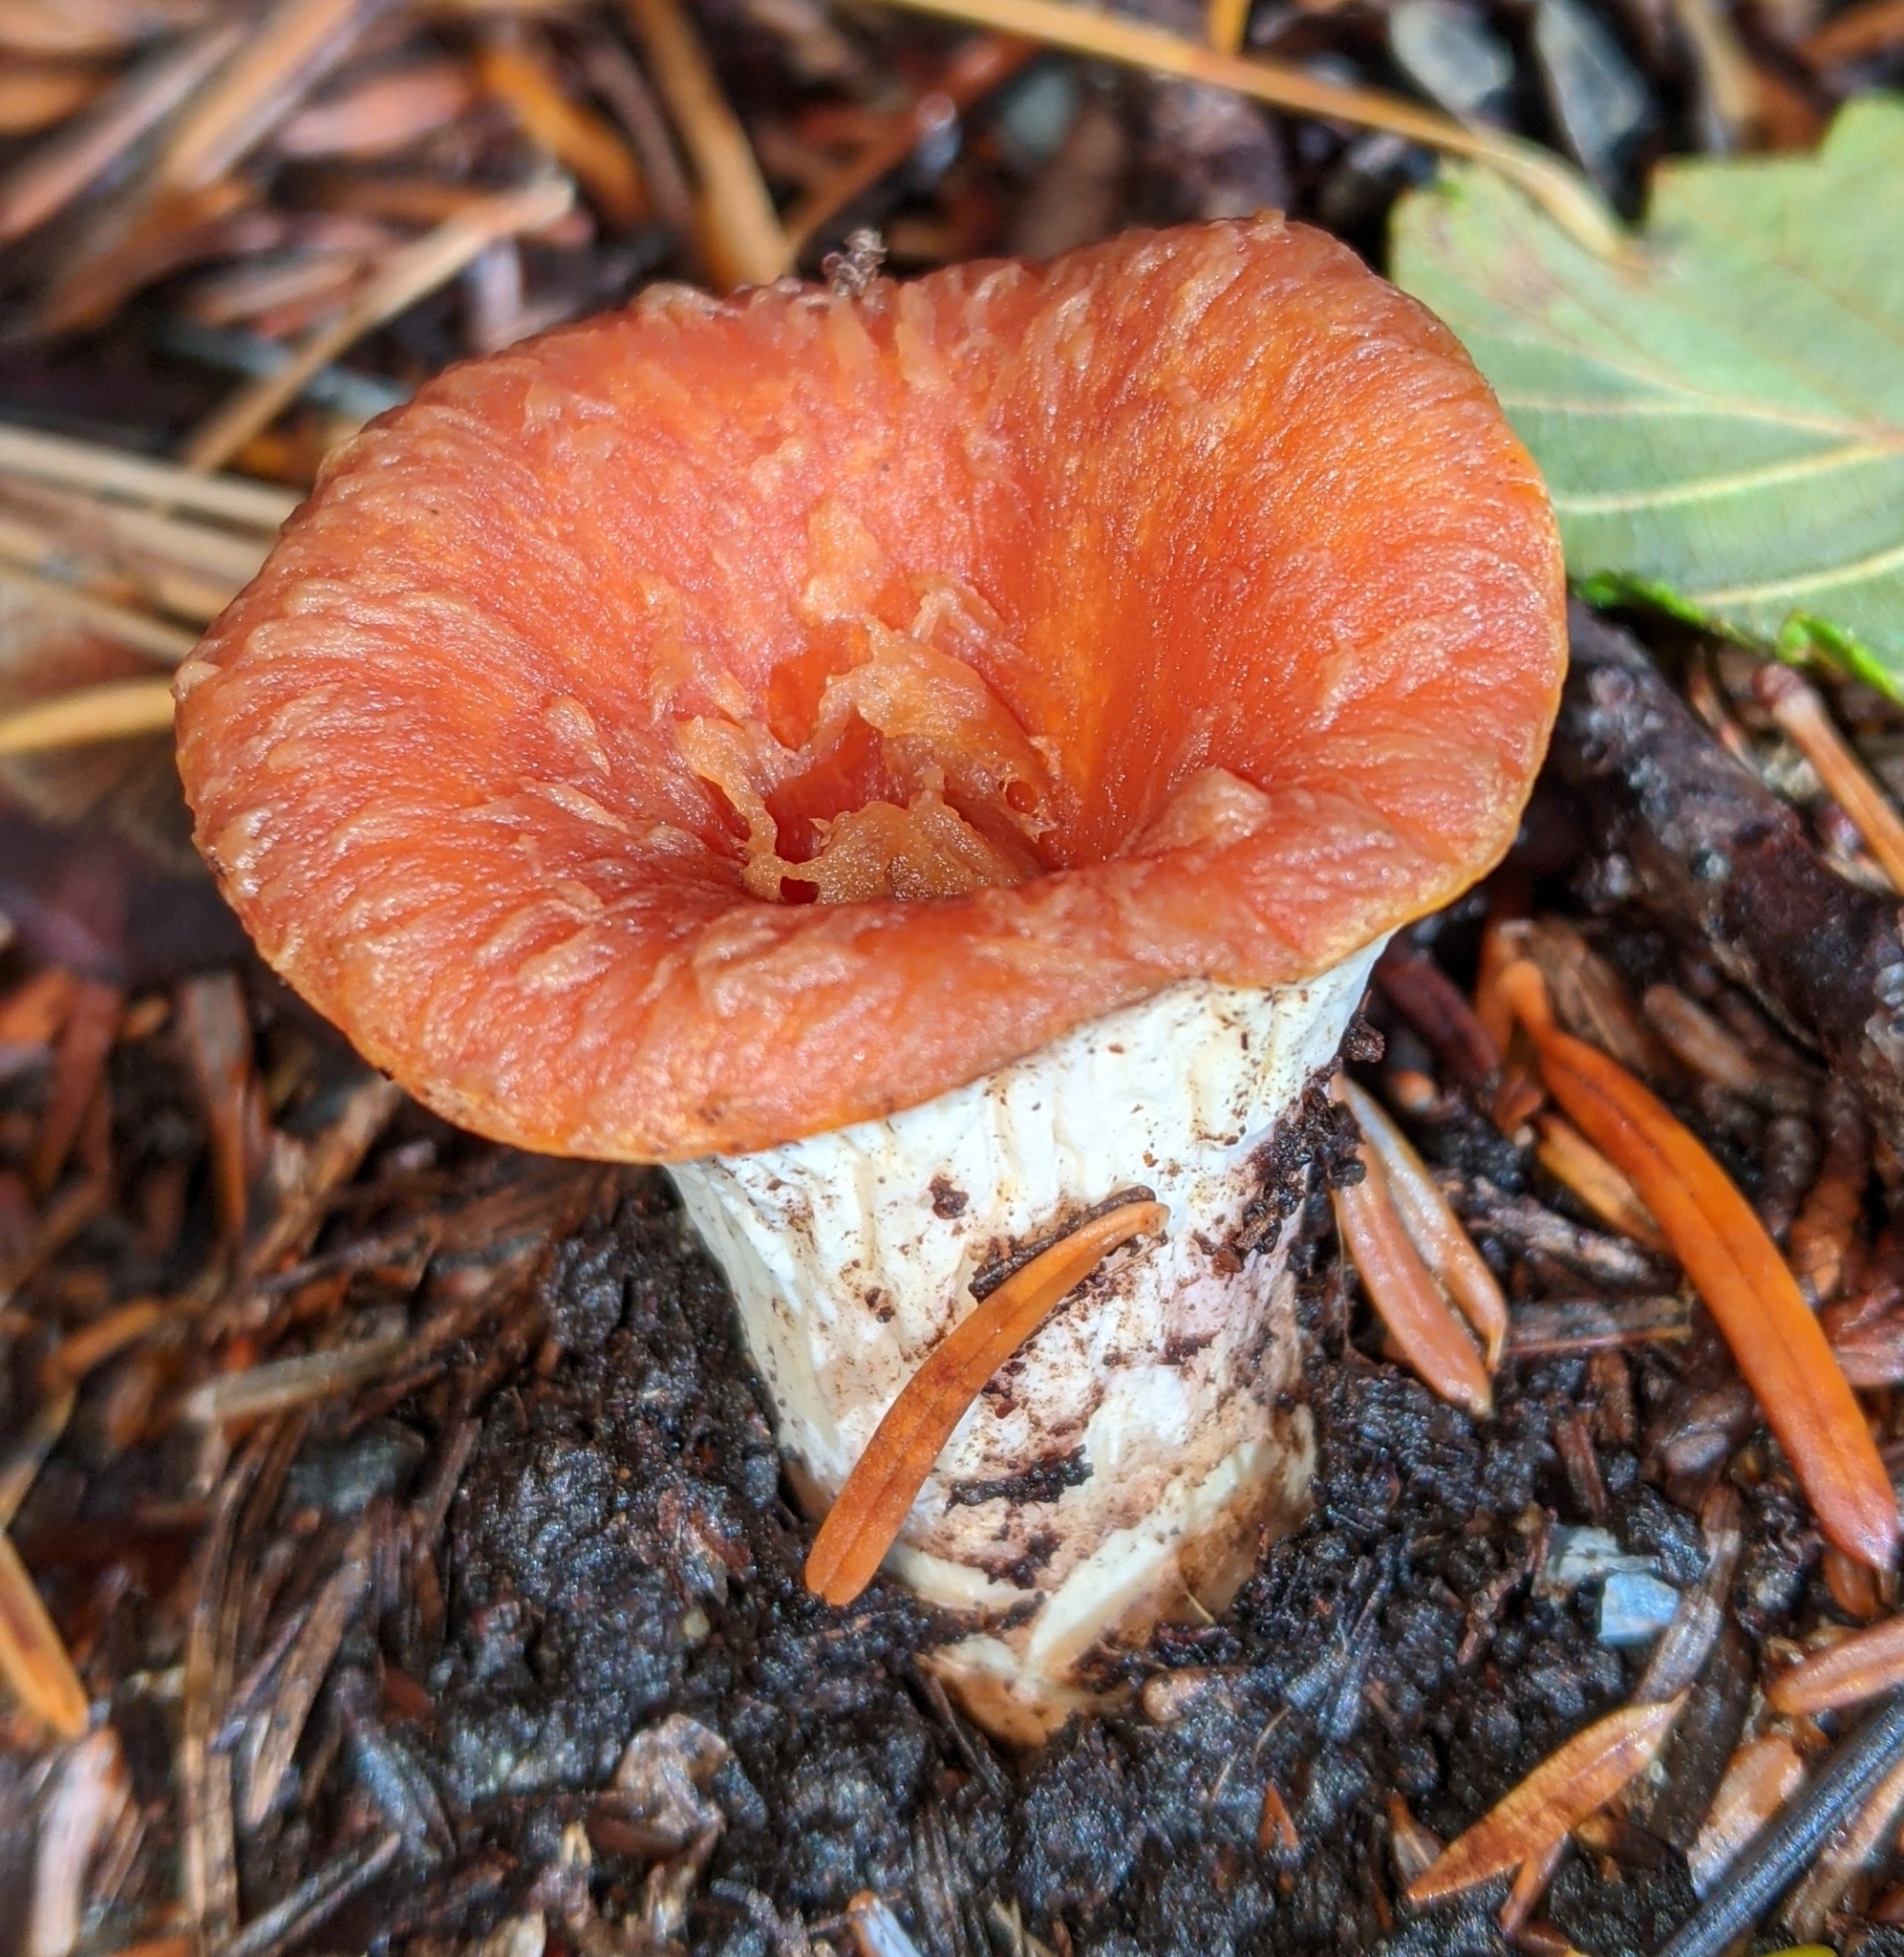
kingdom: Fungi
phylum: Basidiomycota
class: Agaricomycetes
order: Gomphales
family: Gomphaceae
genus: Turbinellus
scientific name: Turbinellus floccosus
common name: Scaly chanterelle
